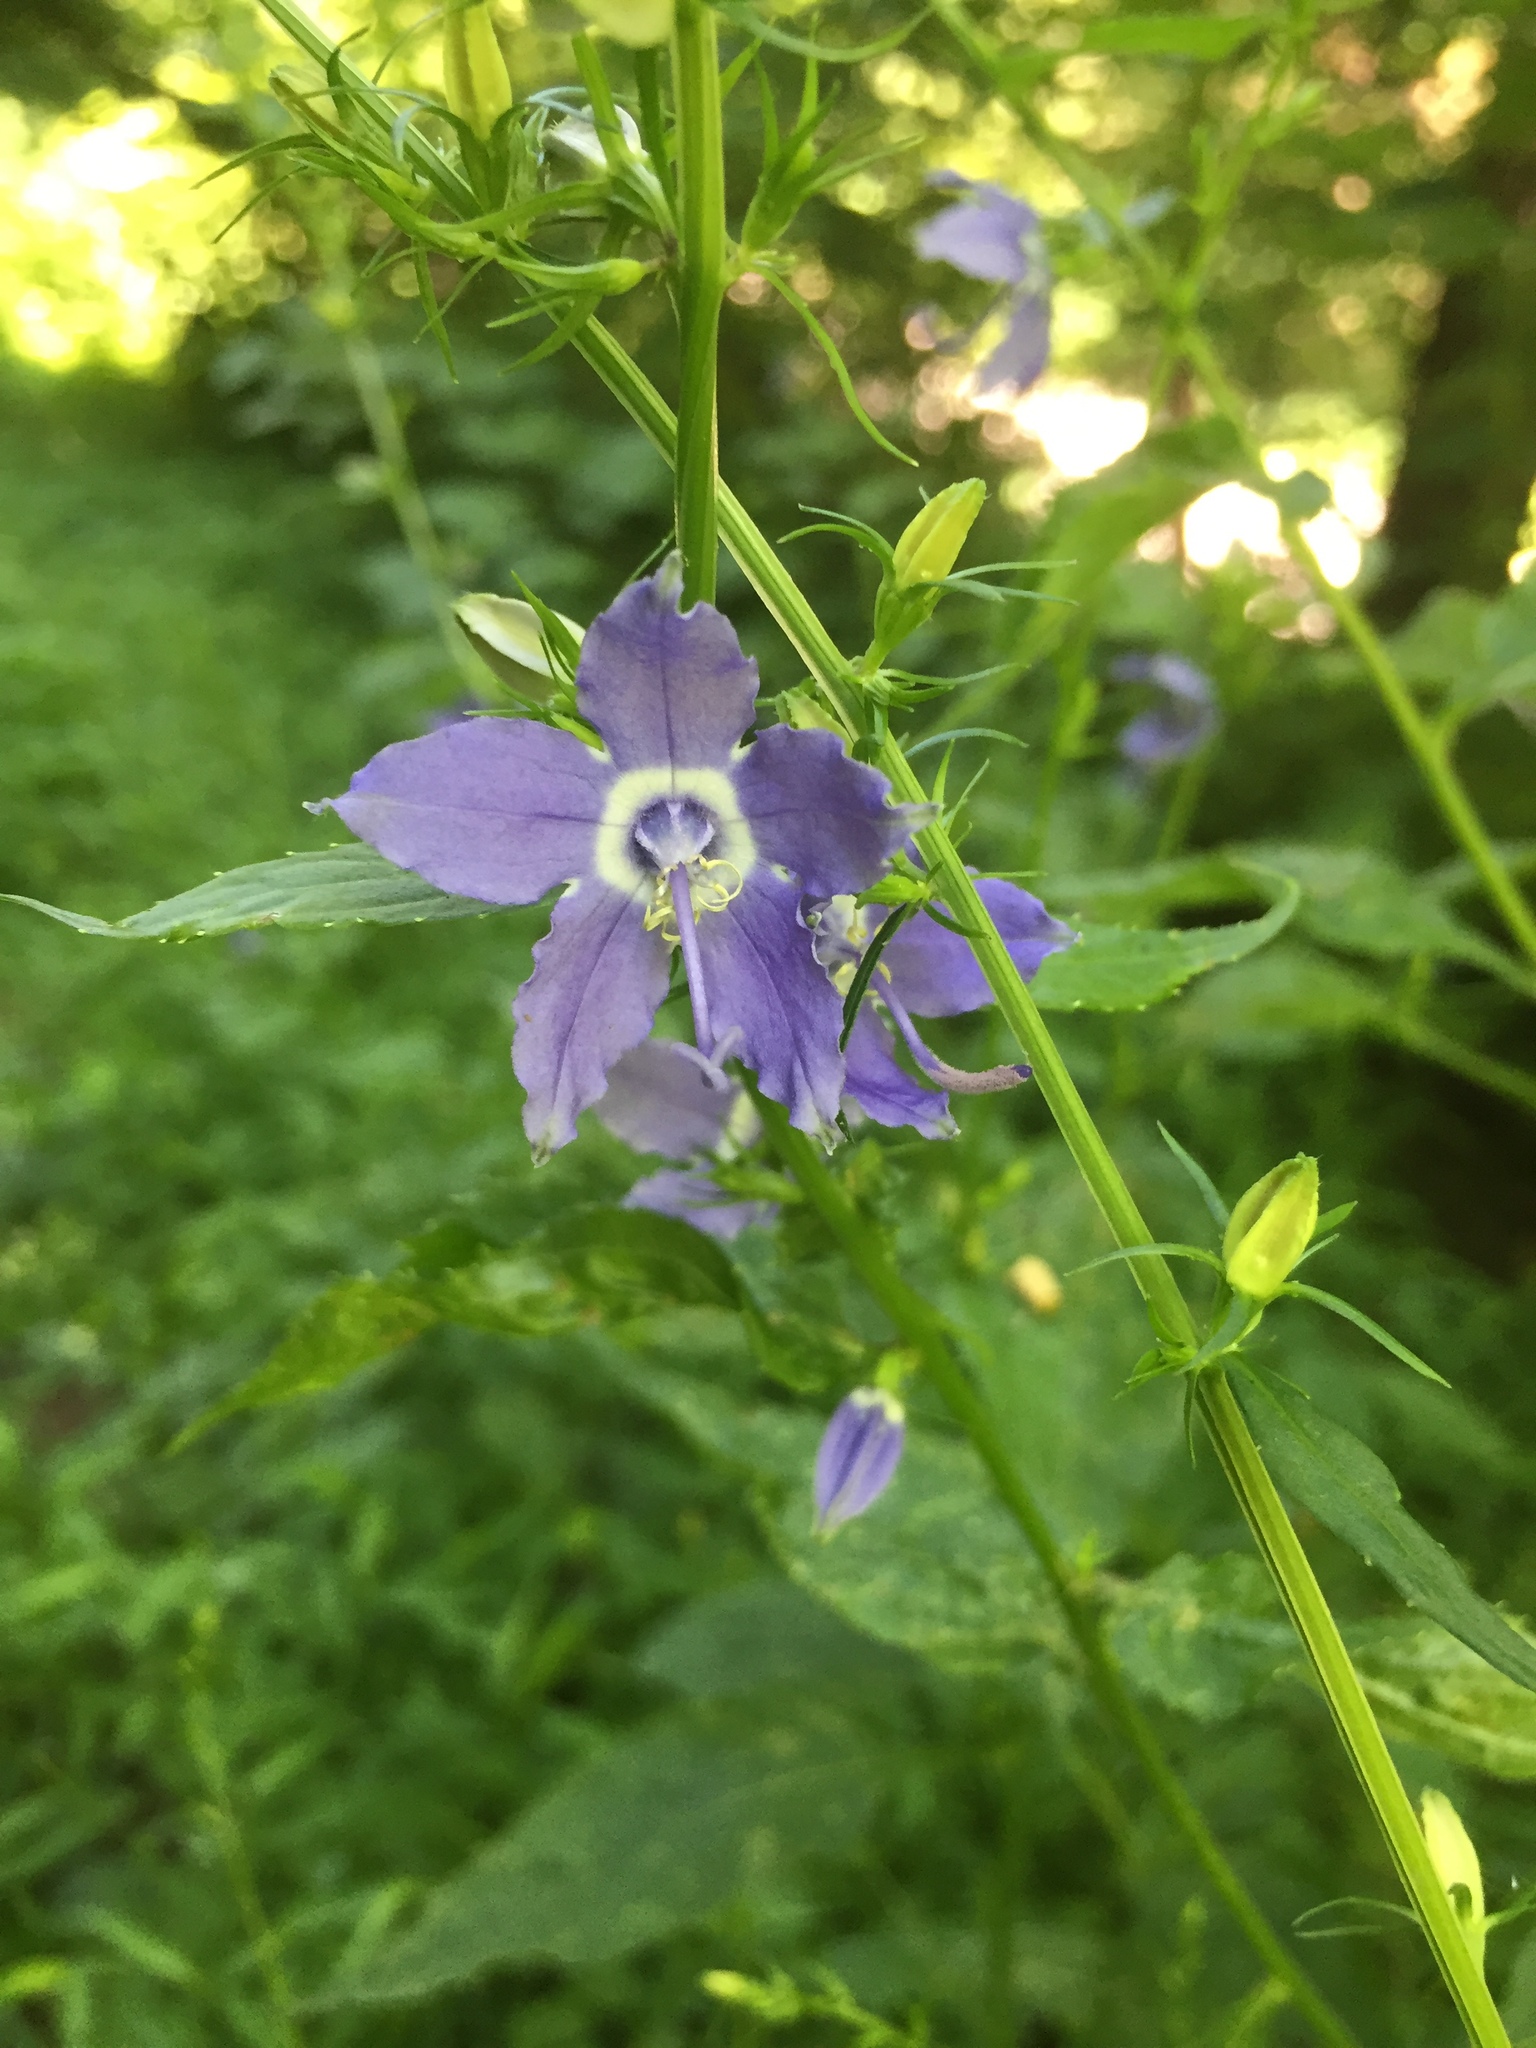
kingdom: Plantae
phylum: Tracheophyta
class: Magnoliopsida
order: Asterales
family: Campanulaceae
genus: Campanulastrum
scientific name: Campanulastrum americanum
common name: American bellflower
